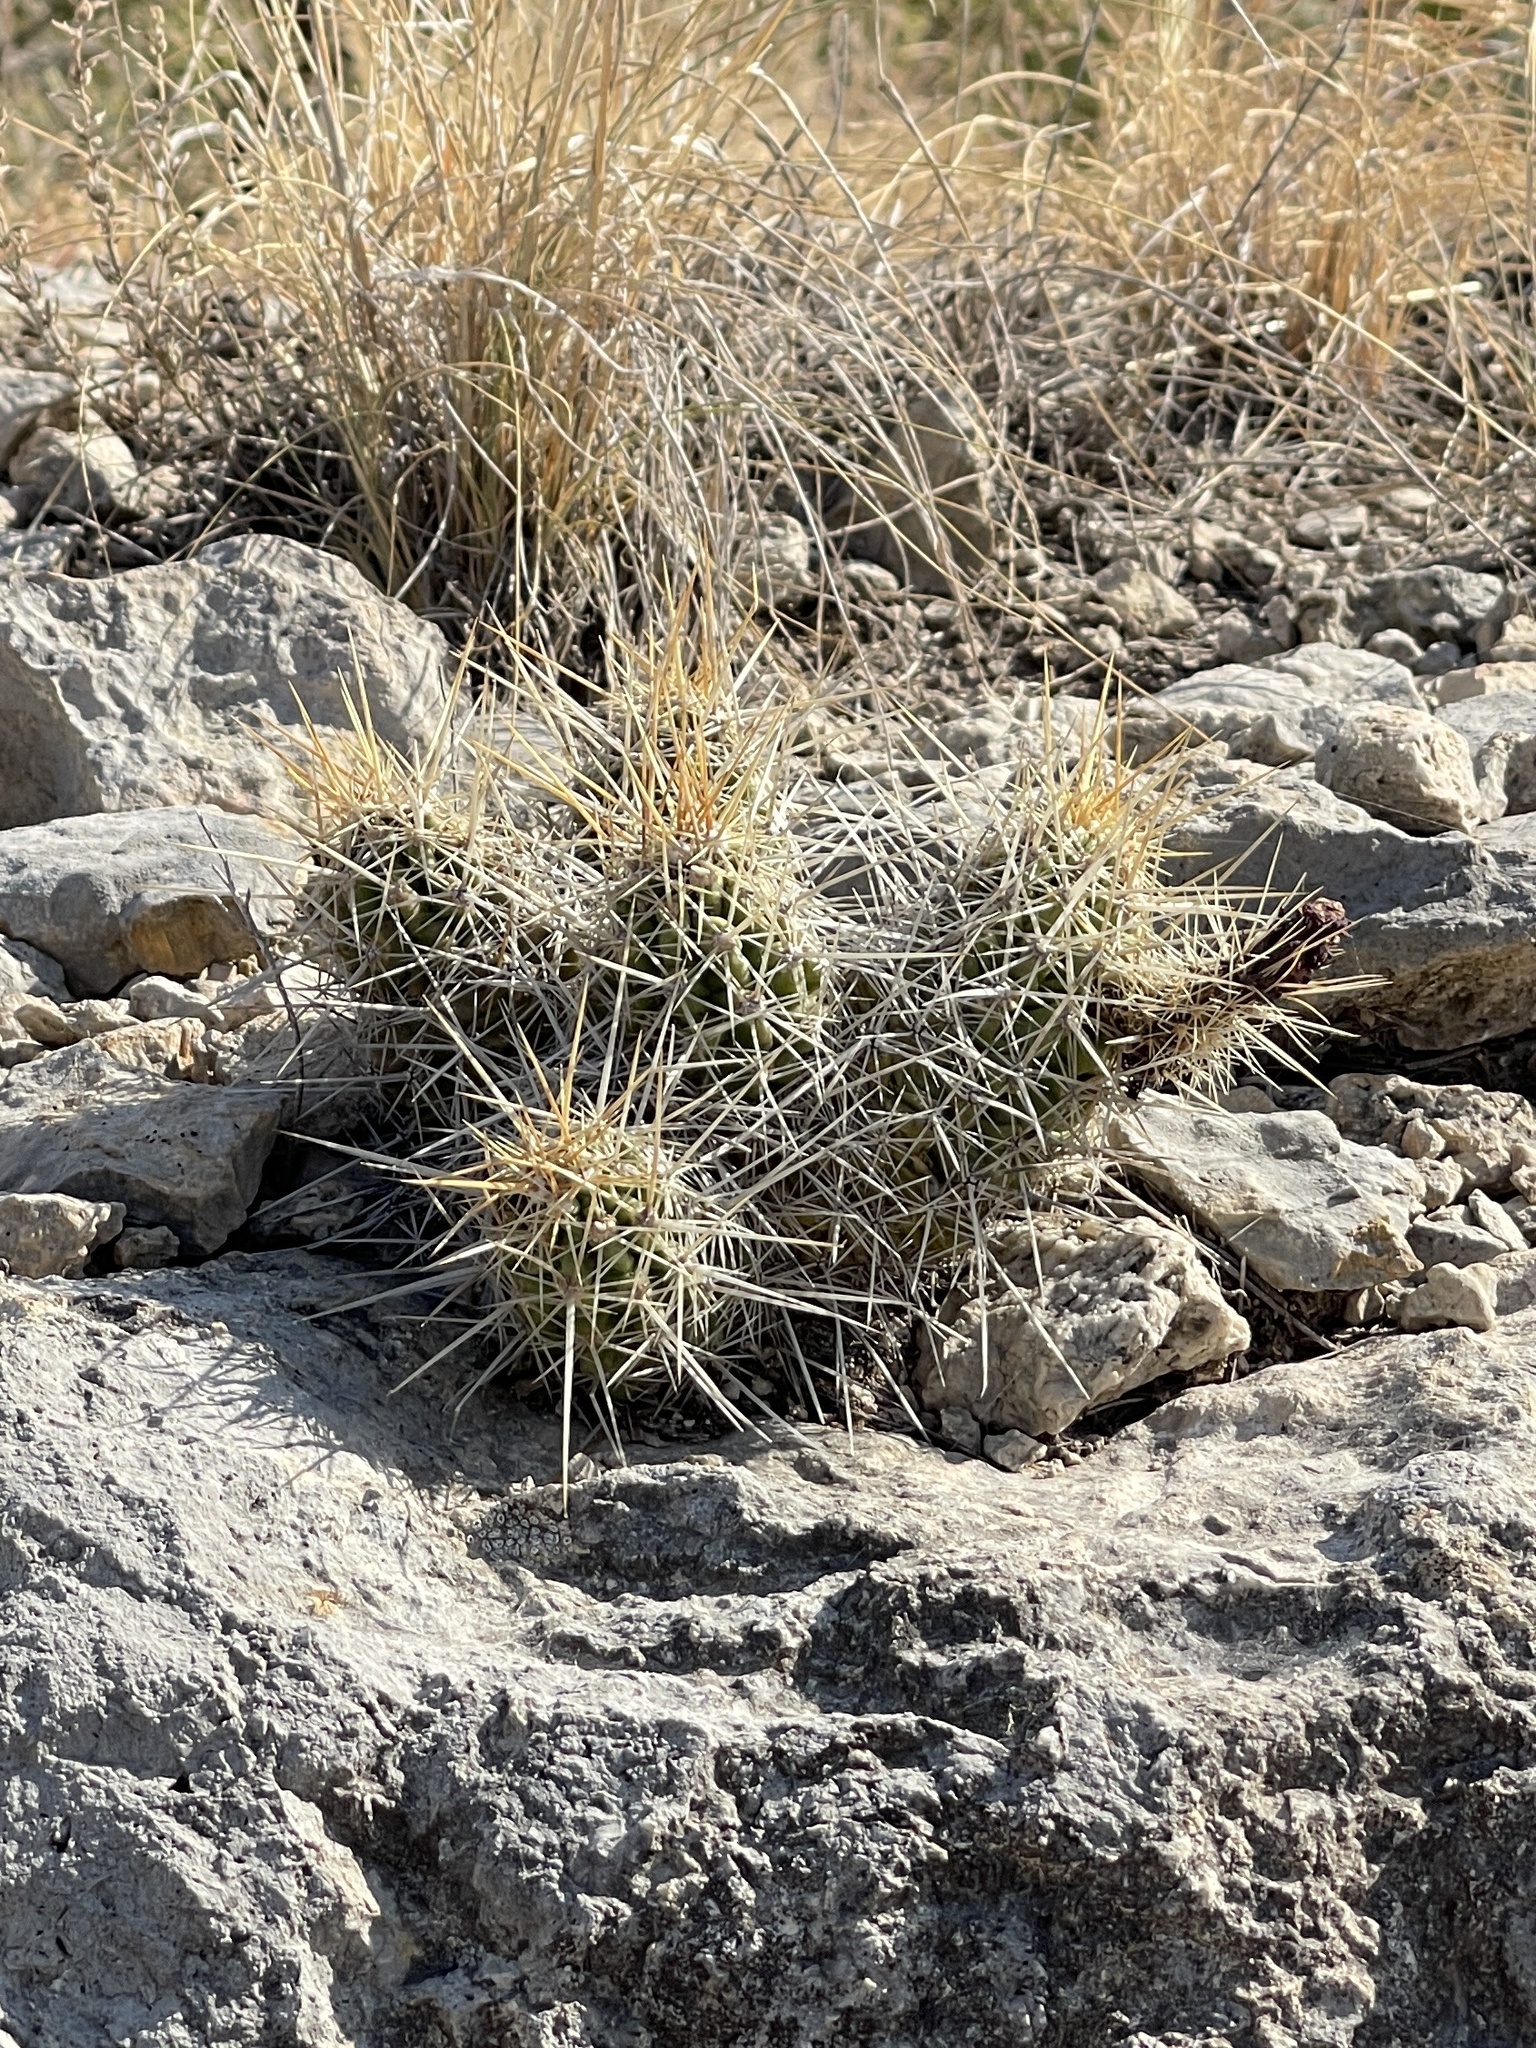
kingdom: Plantae
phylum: Tracheophyta
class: Magnoliopsida
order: Caryophyllales
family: Cactaceae
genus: Echinocereus
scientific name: Echinocereus enneacanthus
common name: Pitaya
